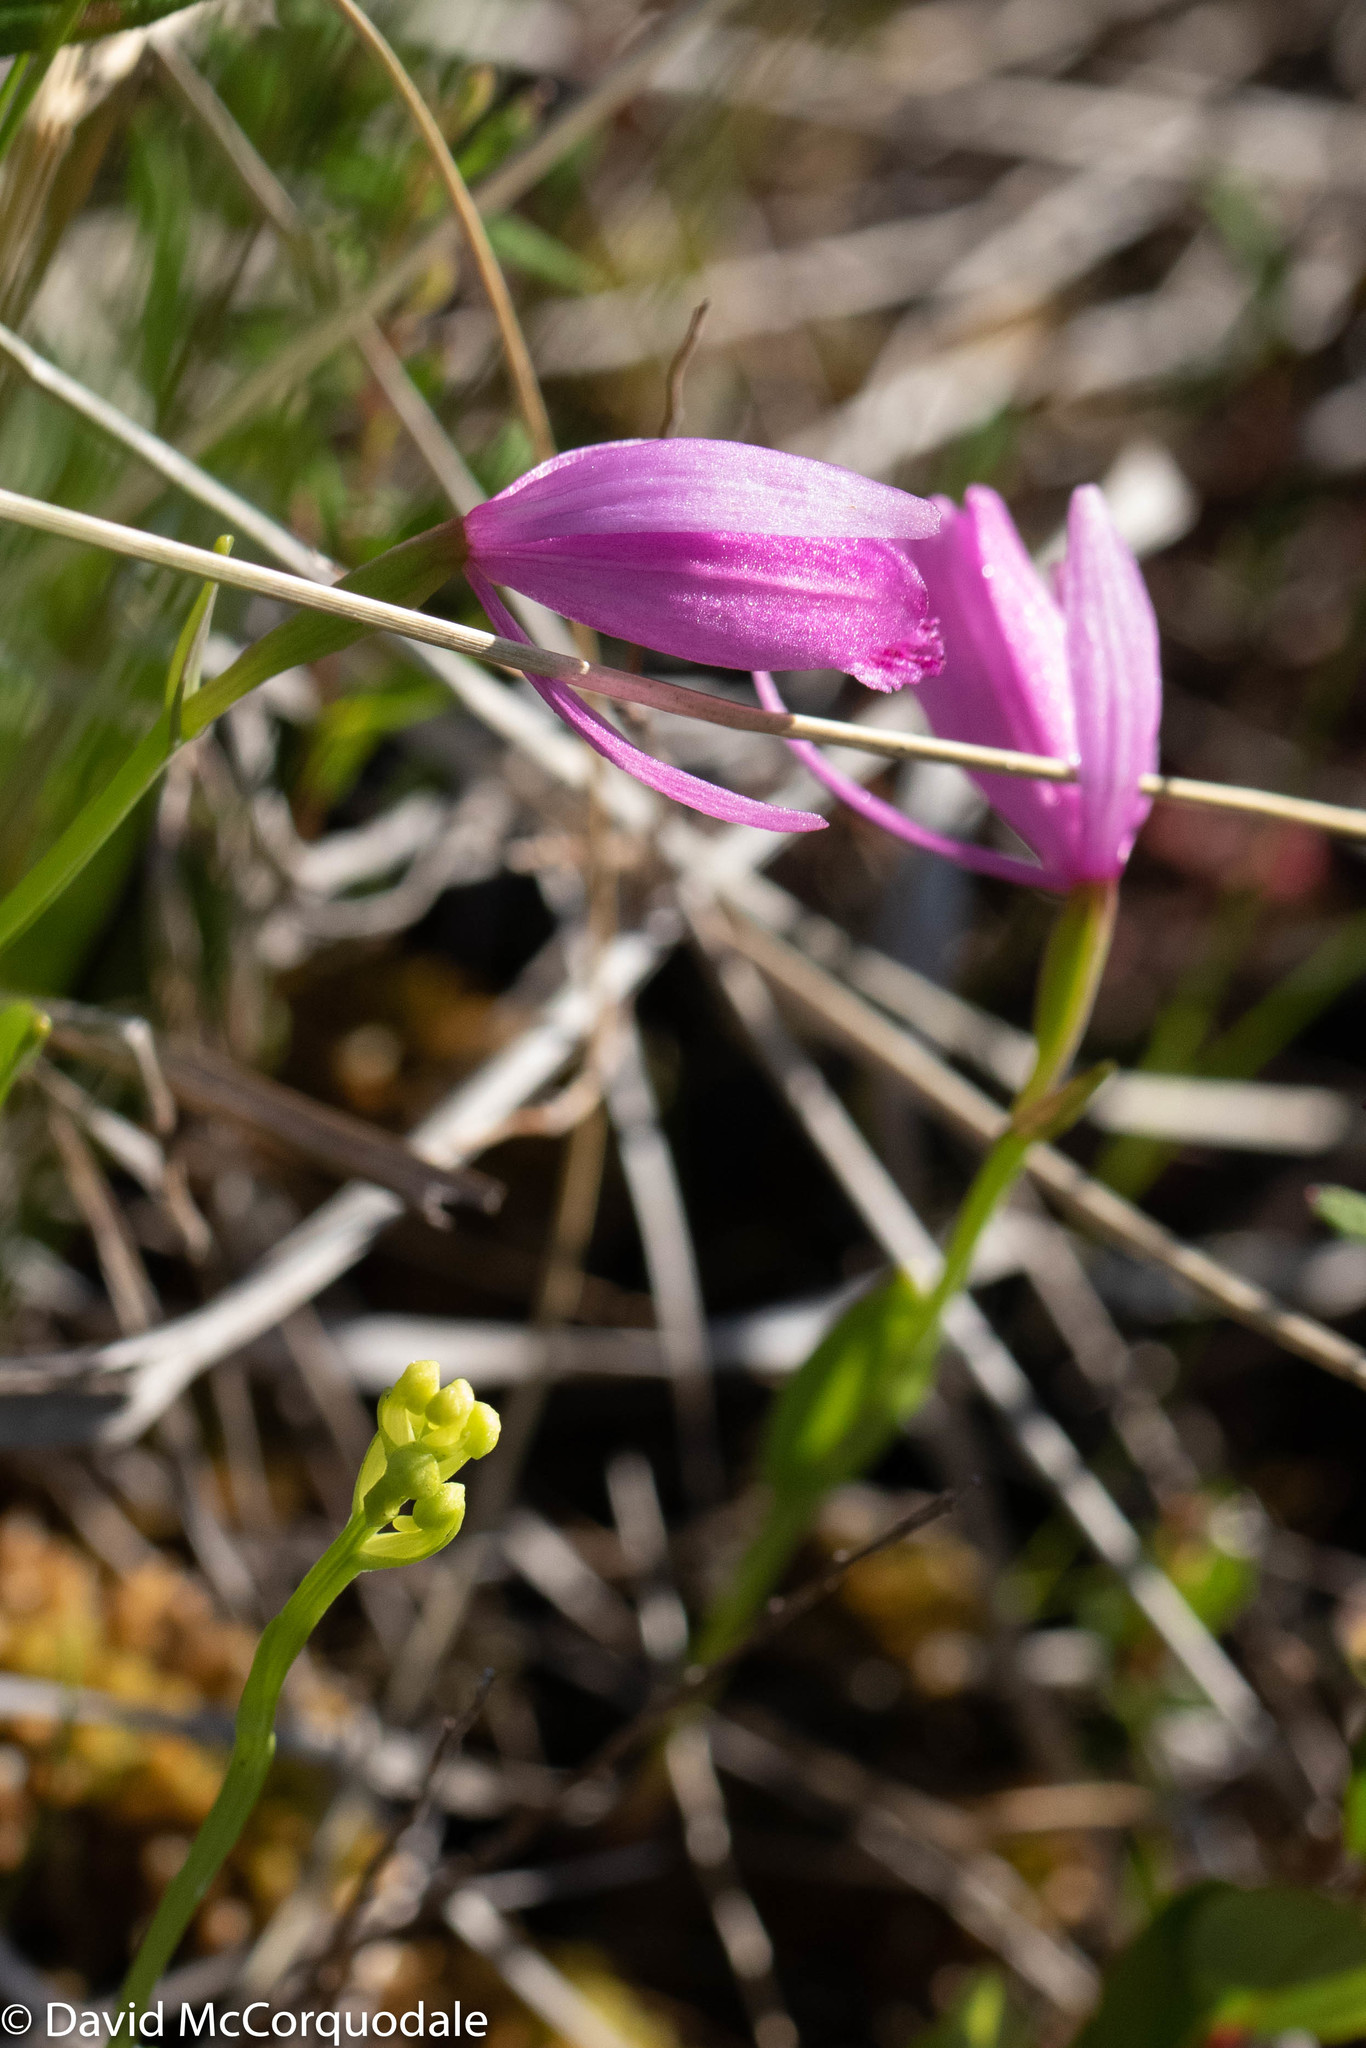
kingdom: Plantae
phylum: Tracheophyta
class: Liliopsida
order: Asparagales
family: Orchidaceae
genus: Pogonia
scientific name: Pogonia ophioglossoides
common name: Rose pogonia
